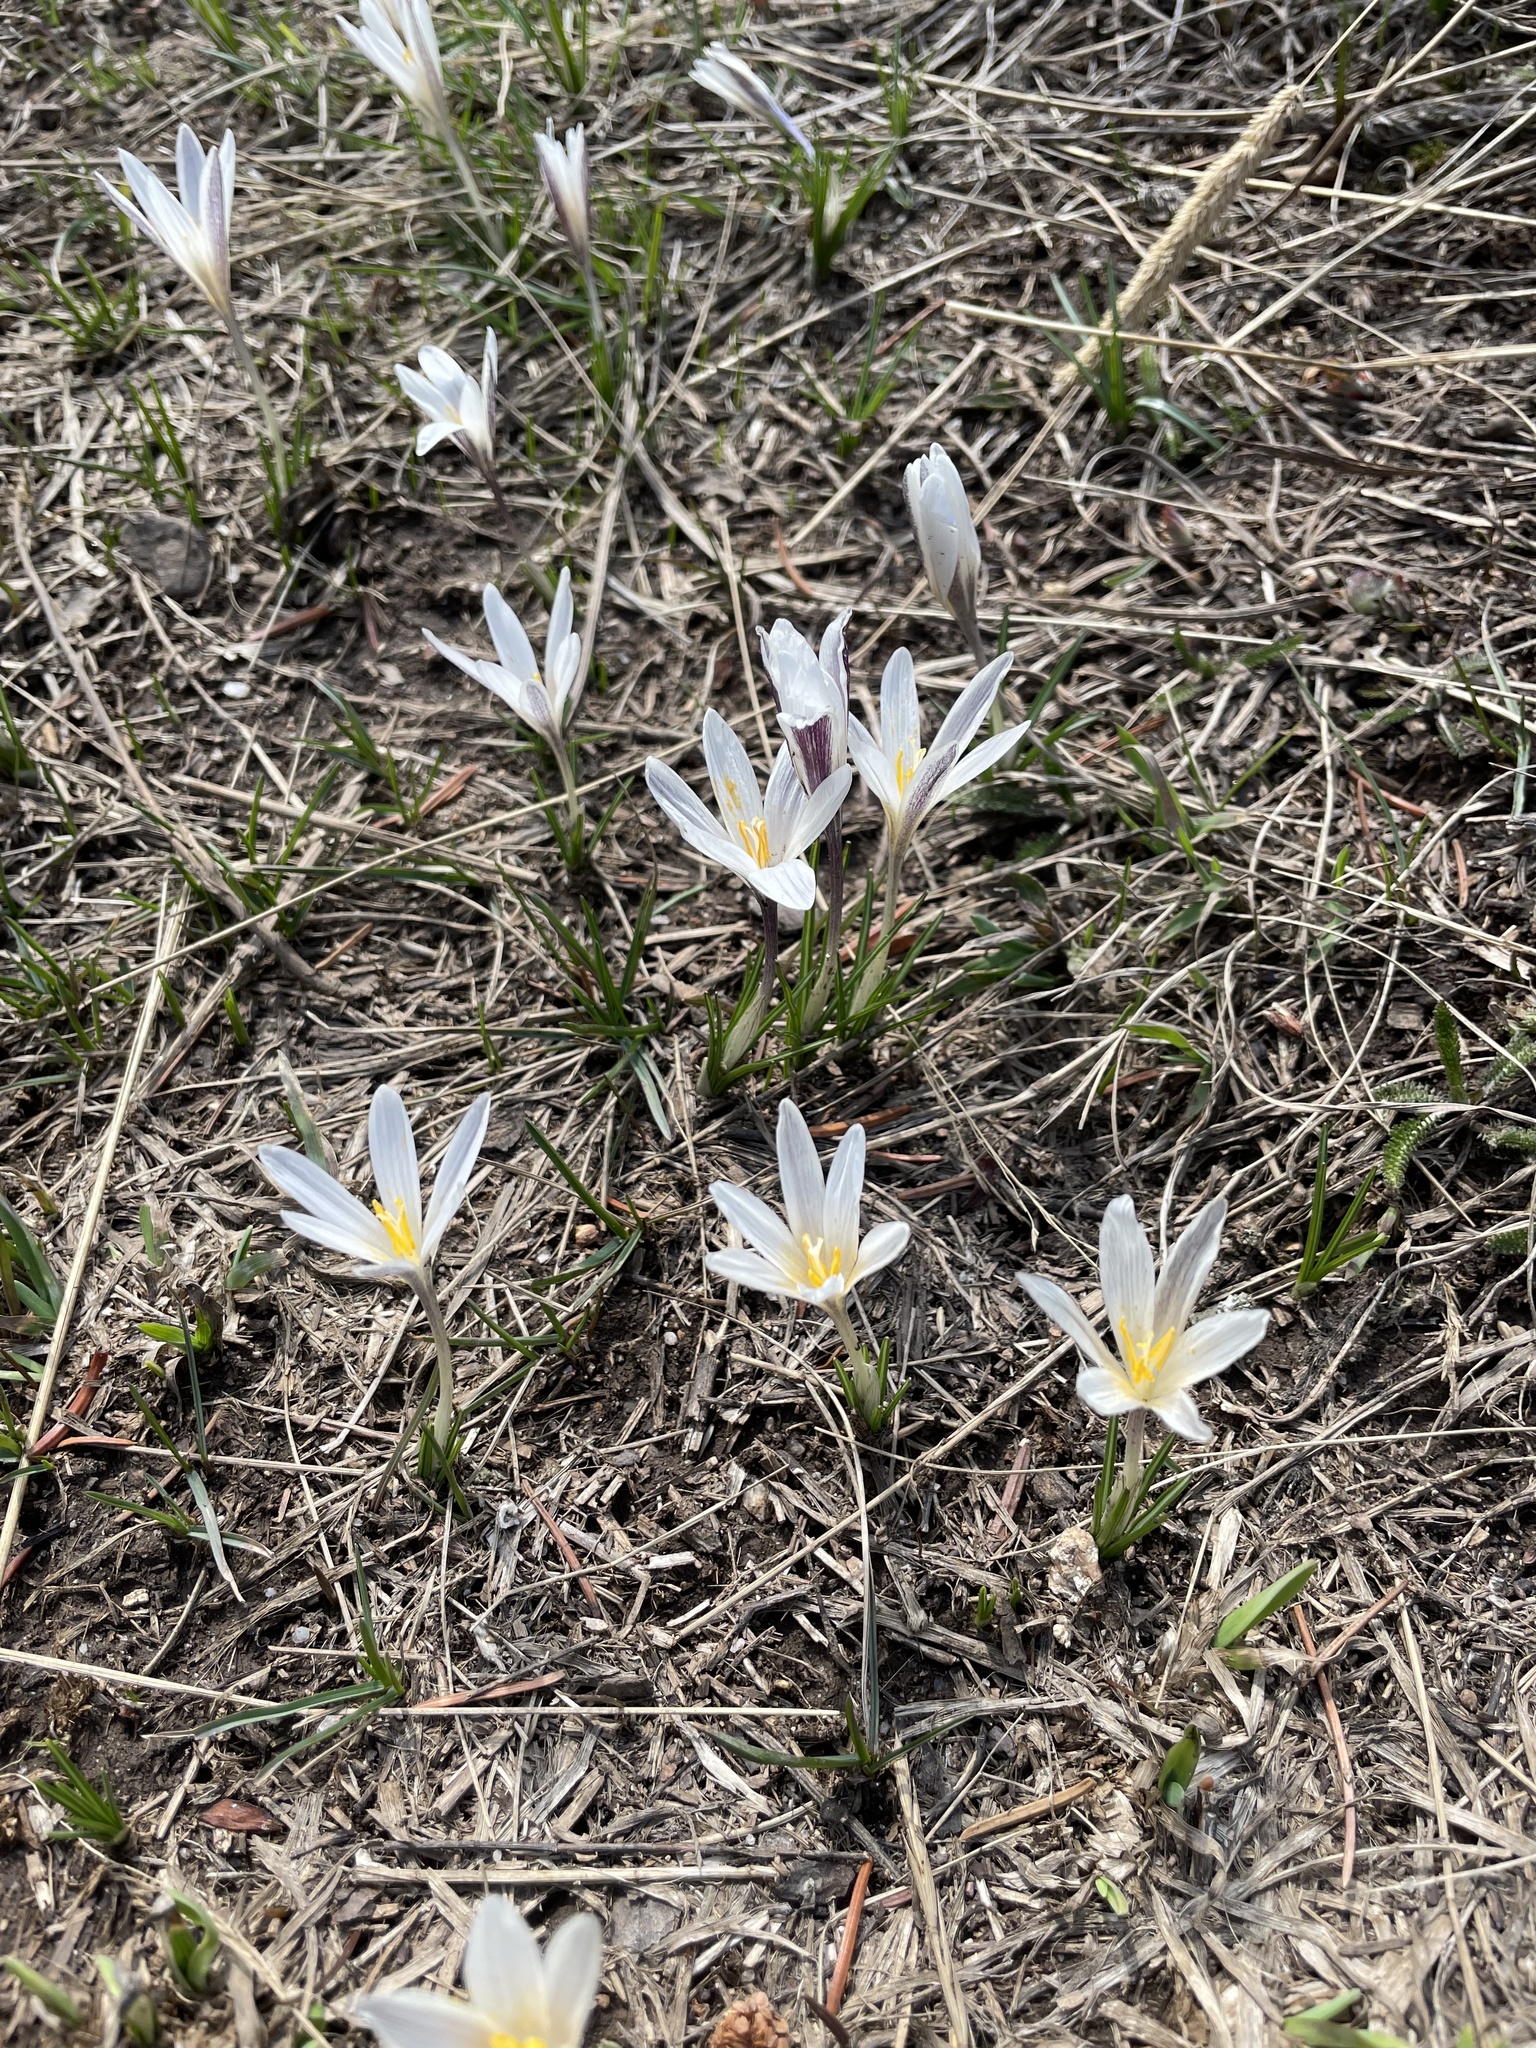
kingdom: Plantae
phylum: Tracheophyta
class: Liliopsida
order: Asparagales
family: Iridaceae
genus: Crocus
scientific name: Crocus alatavicus
